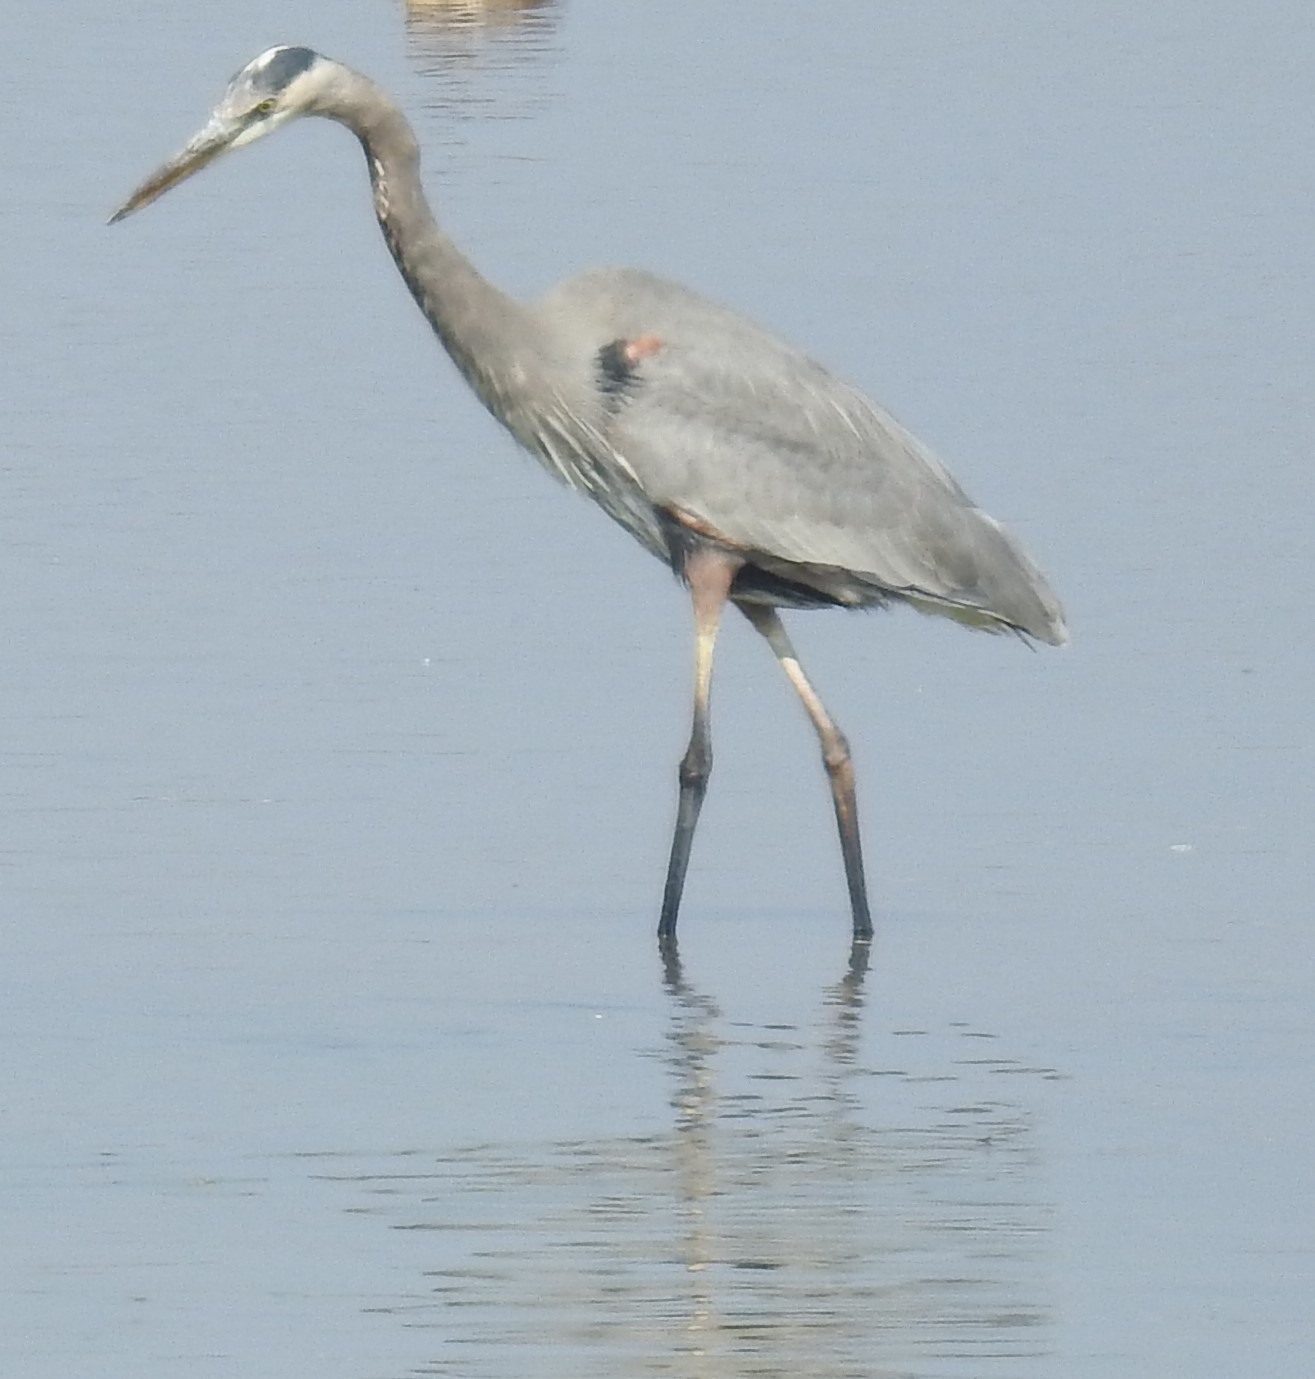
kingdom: Animalia
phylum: Chordata
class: Aves
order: Pelecaniformes
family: Ardeidae
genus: Ardea
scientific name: Ardea herodias
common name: Great blue heron
